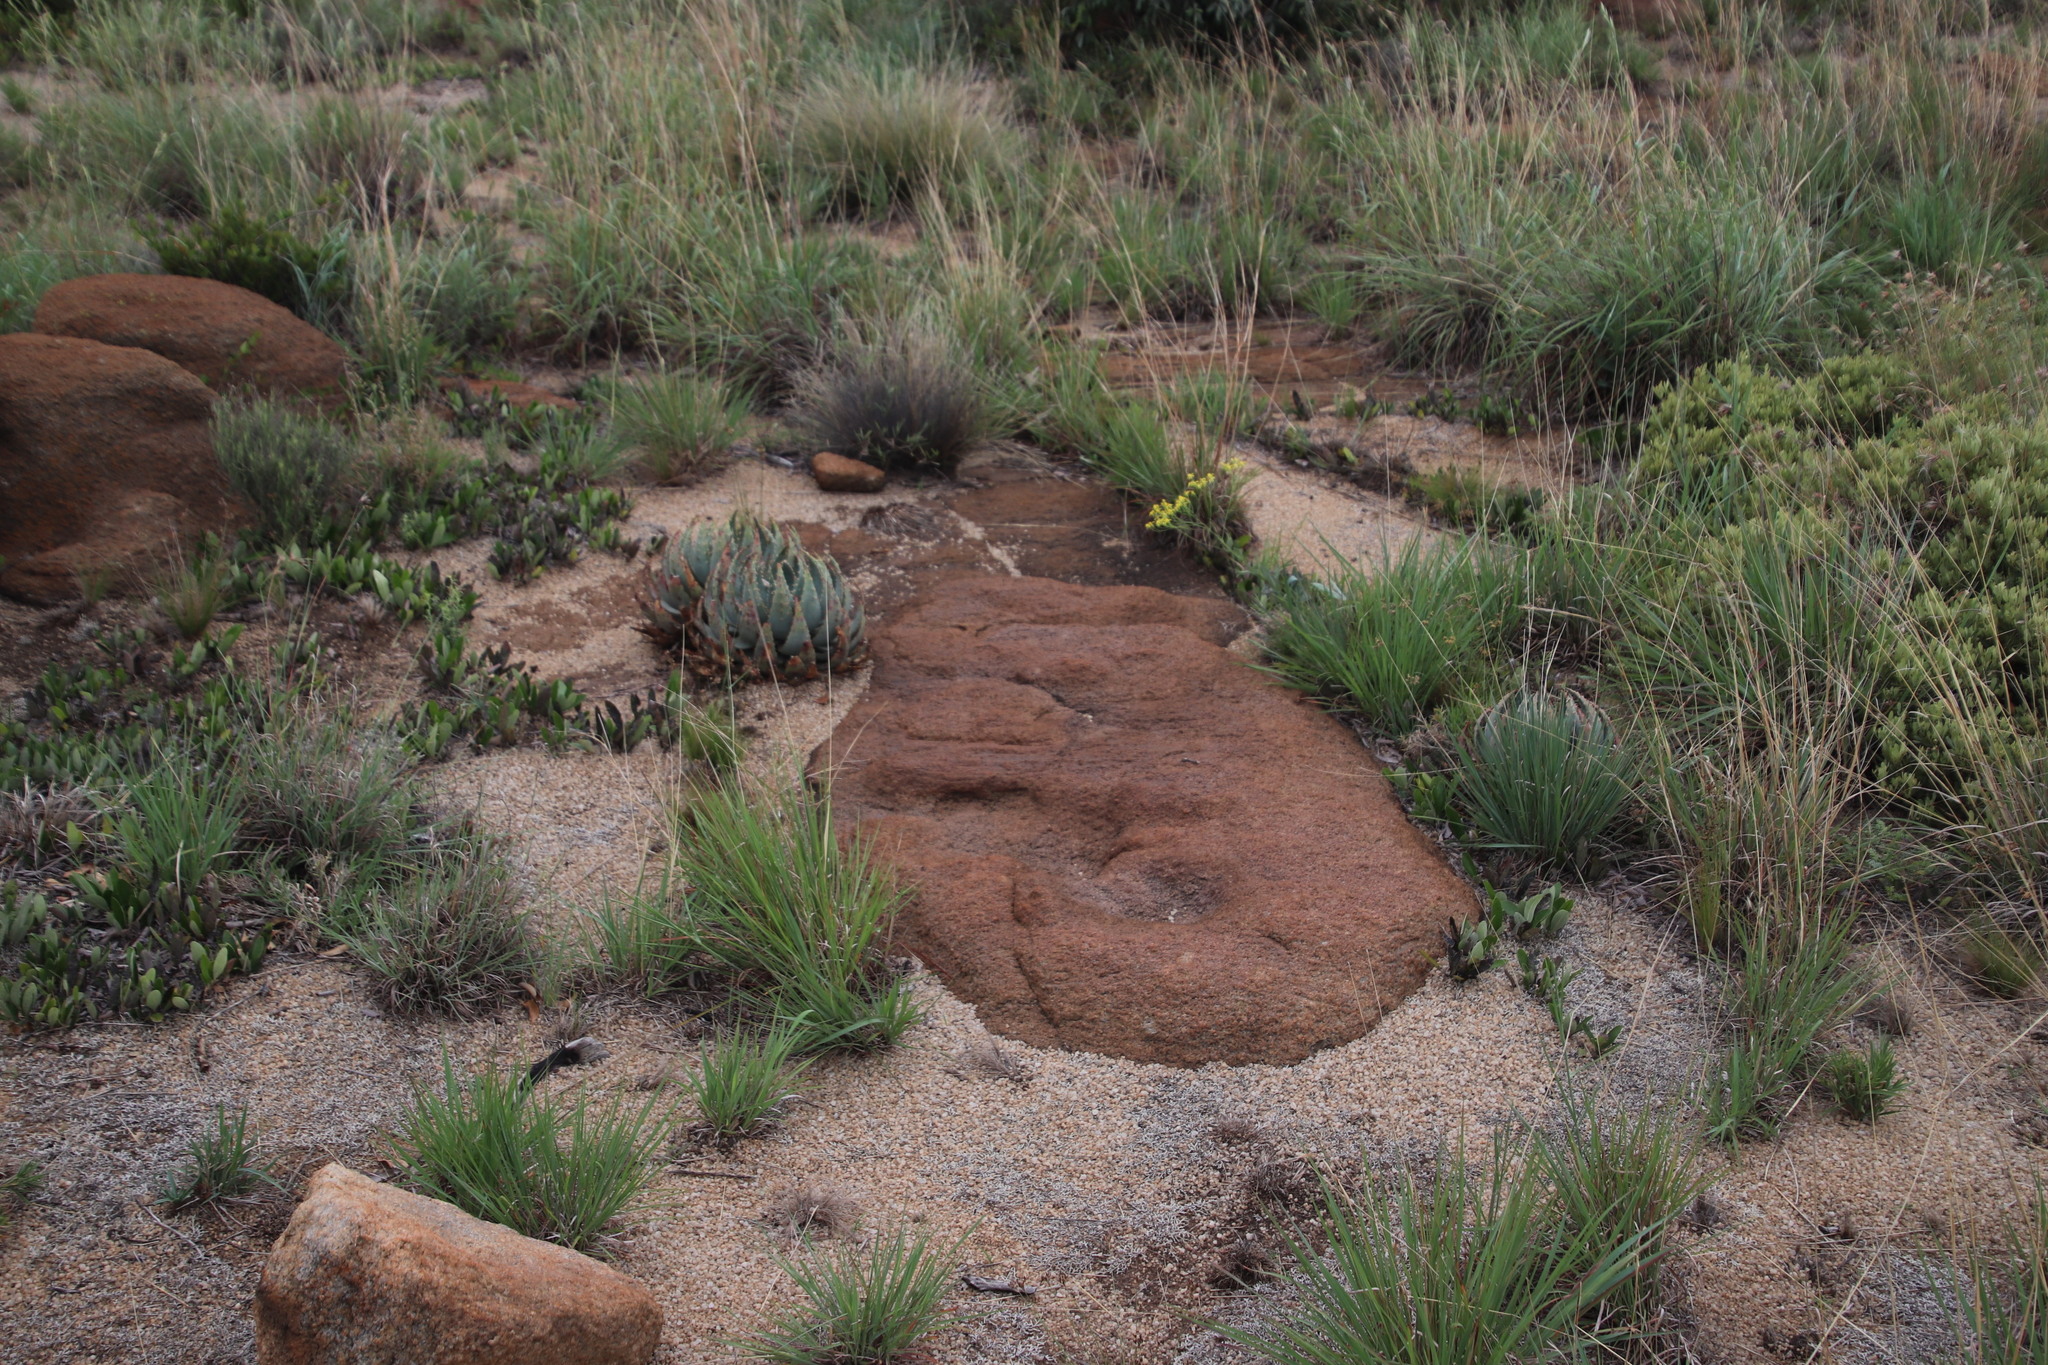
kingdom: Plantae
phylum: Tracheophyta
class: Liliopsida
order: Asparagales
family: Asphodelaceae
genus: Aloe
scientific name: Aloe peglerae
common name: Red-hot poker
